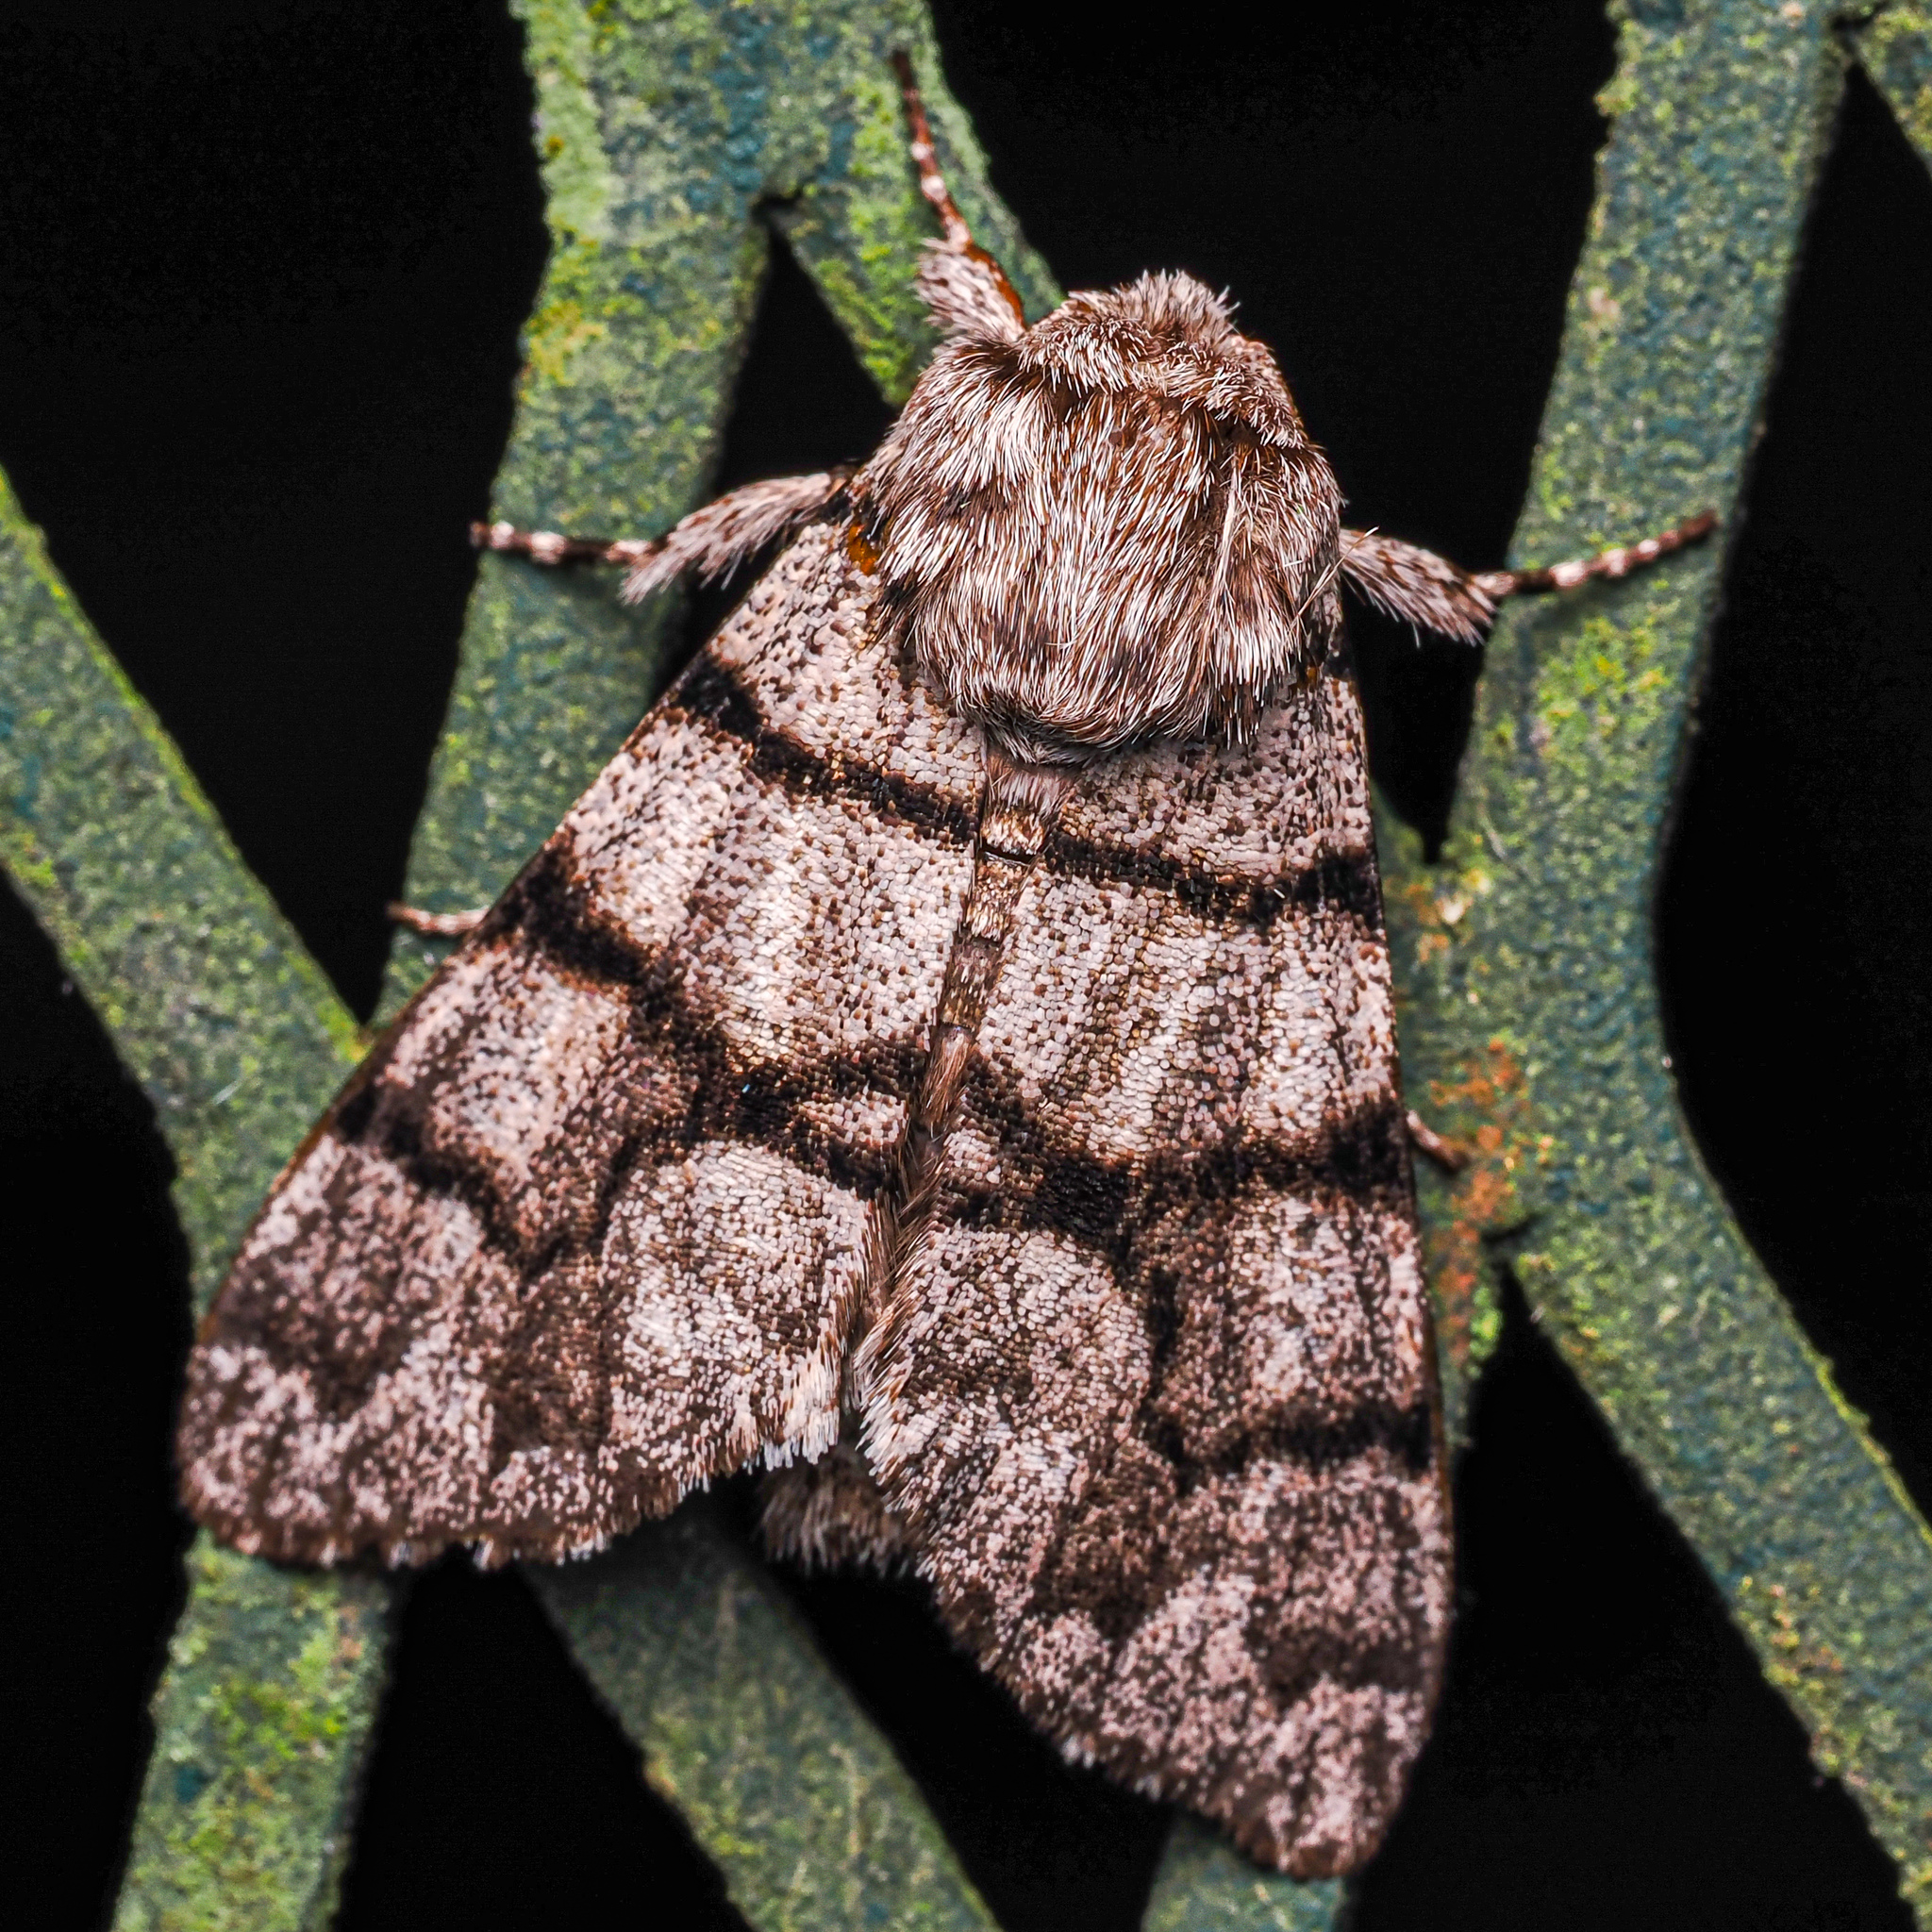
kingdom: Animalia
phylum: Arthropoda
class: Insecta
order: Lepidoptera
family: Noctuidae
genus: Panthea
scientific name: Panthea furcilla
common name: Eastern panthea moth
